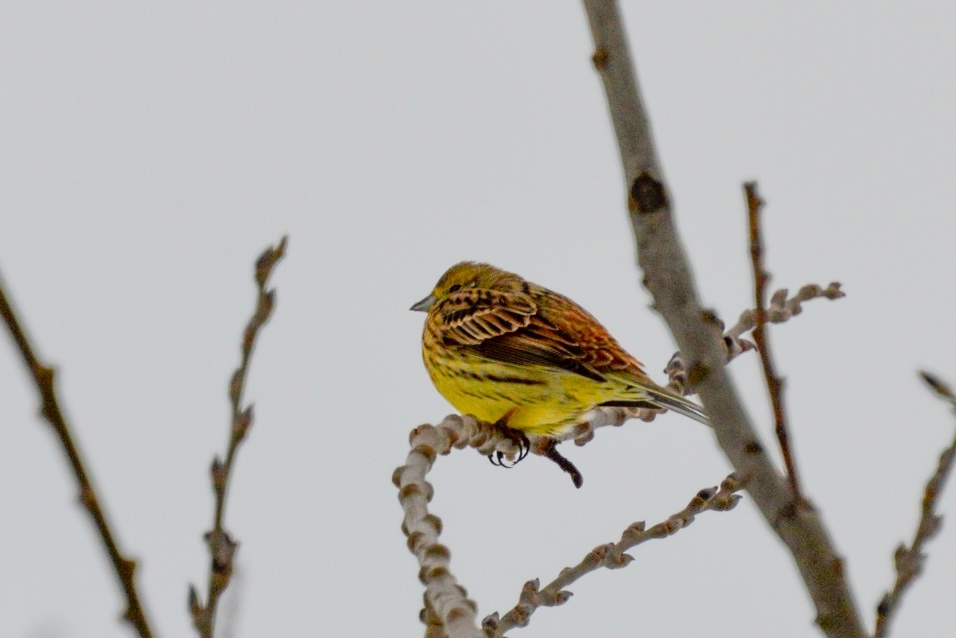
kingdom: Animalia
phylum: Chordata
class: Aves
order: Passeriformes
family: Emberizidae
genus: Emberiza
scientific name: Emberiza citrinella
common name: Yellowhammer
